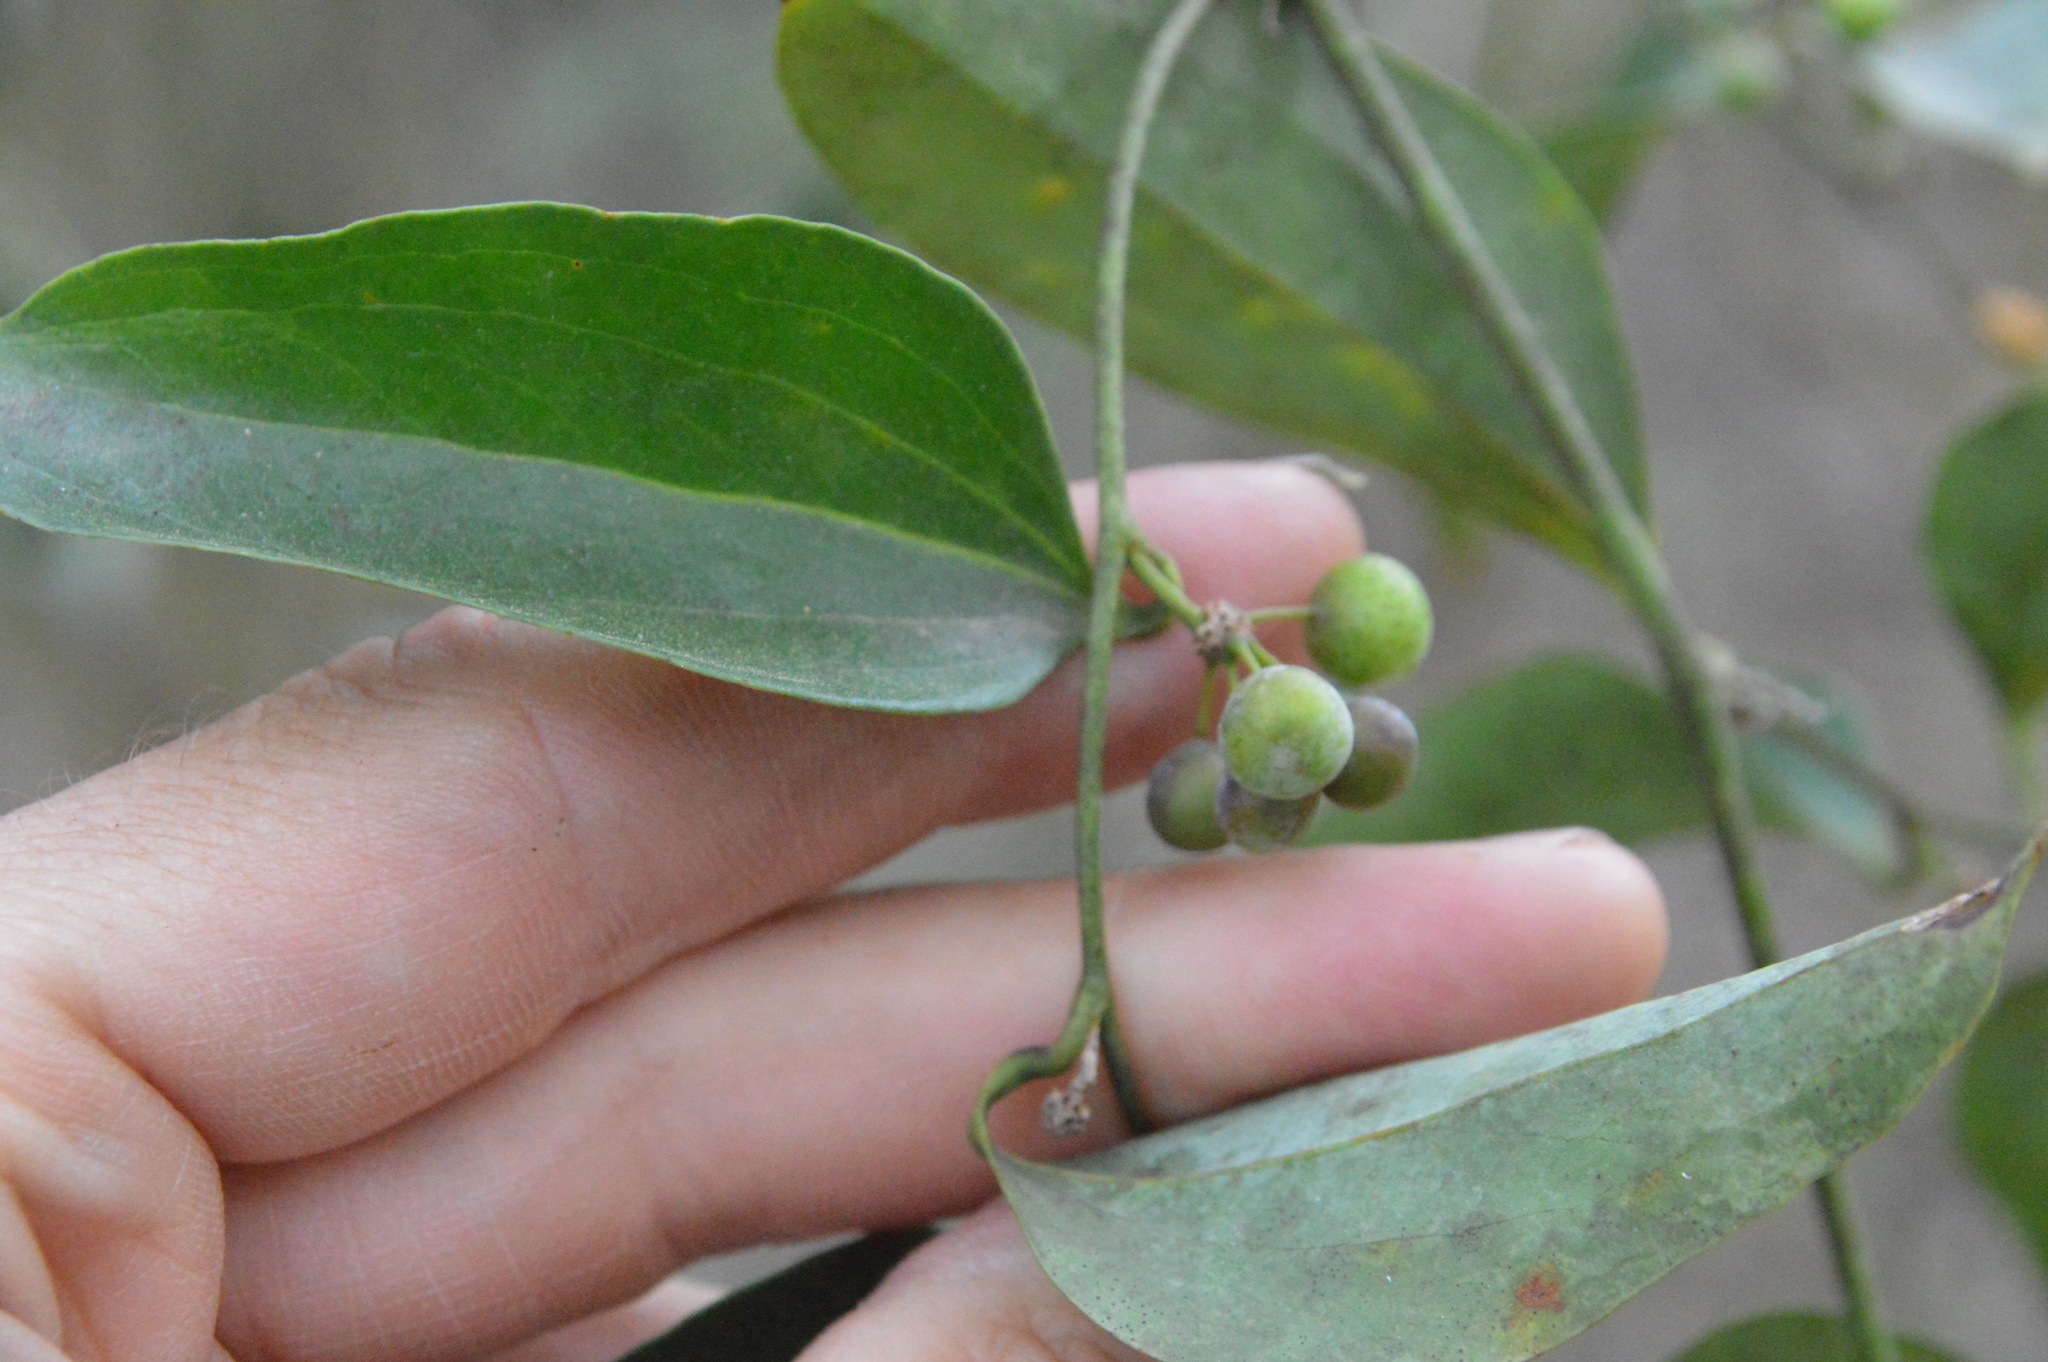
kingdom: Plantae
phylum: Tracheophyta
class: Liliopsida
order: Liliales
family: Smilacaceae
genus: Smilax
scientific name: Smilax maritima
